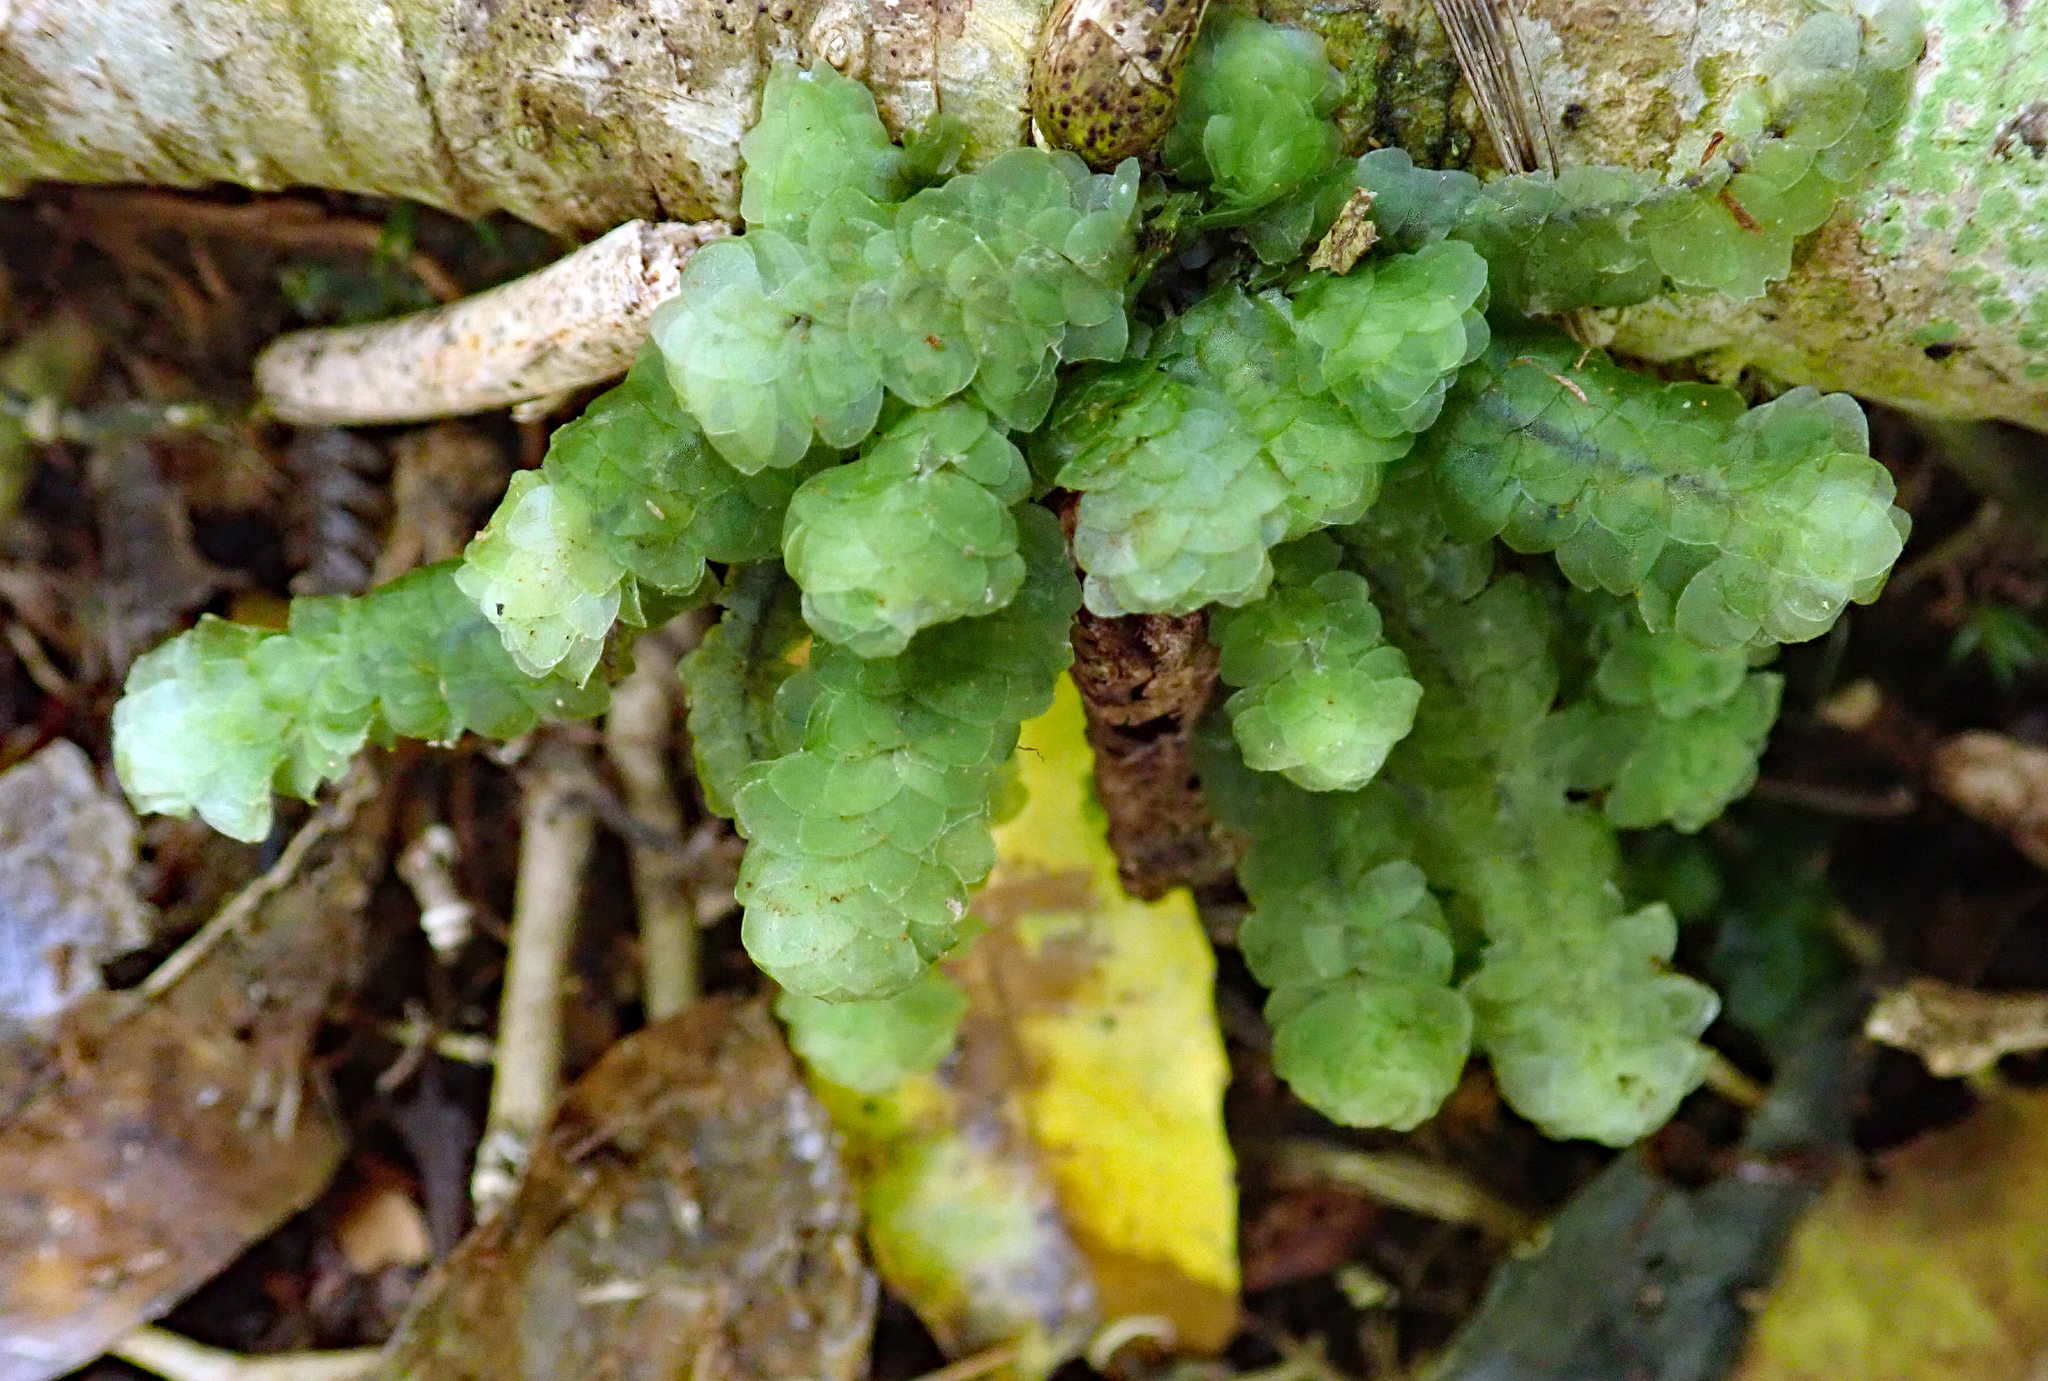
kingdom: Plantae
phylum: Bryophyta
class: Bryopsida
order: Hookeriales
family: Daltoniaceae
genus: Achrophyllum
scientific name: Achrophyllum dentatum
